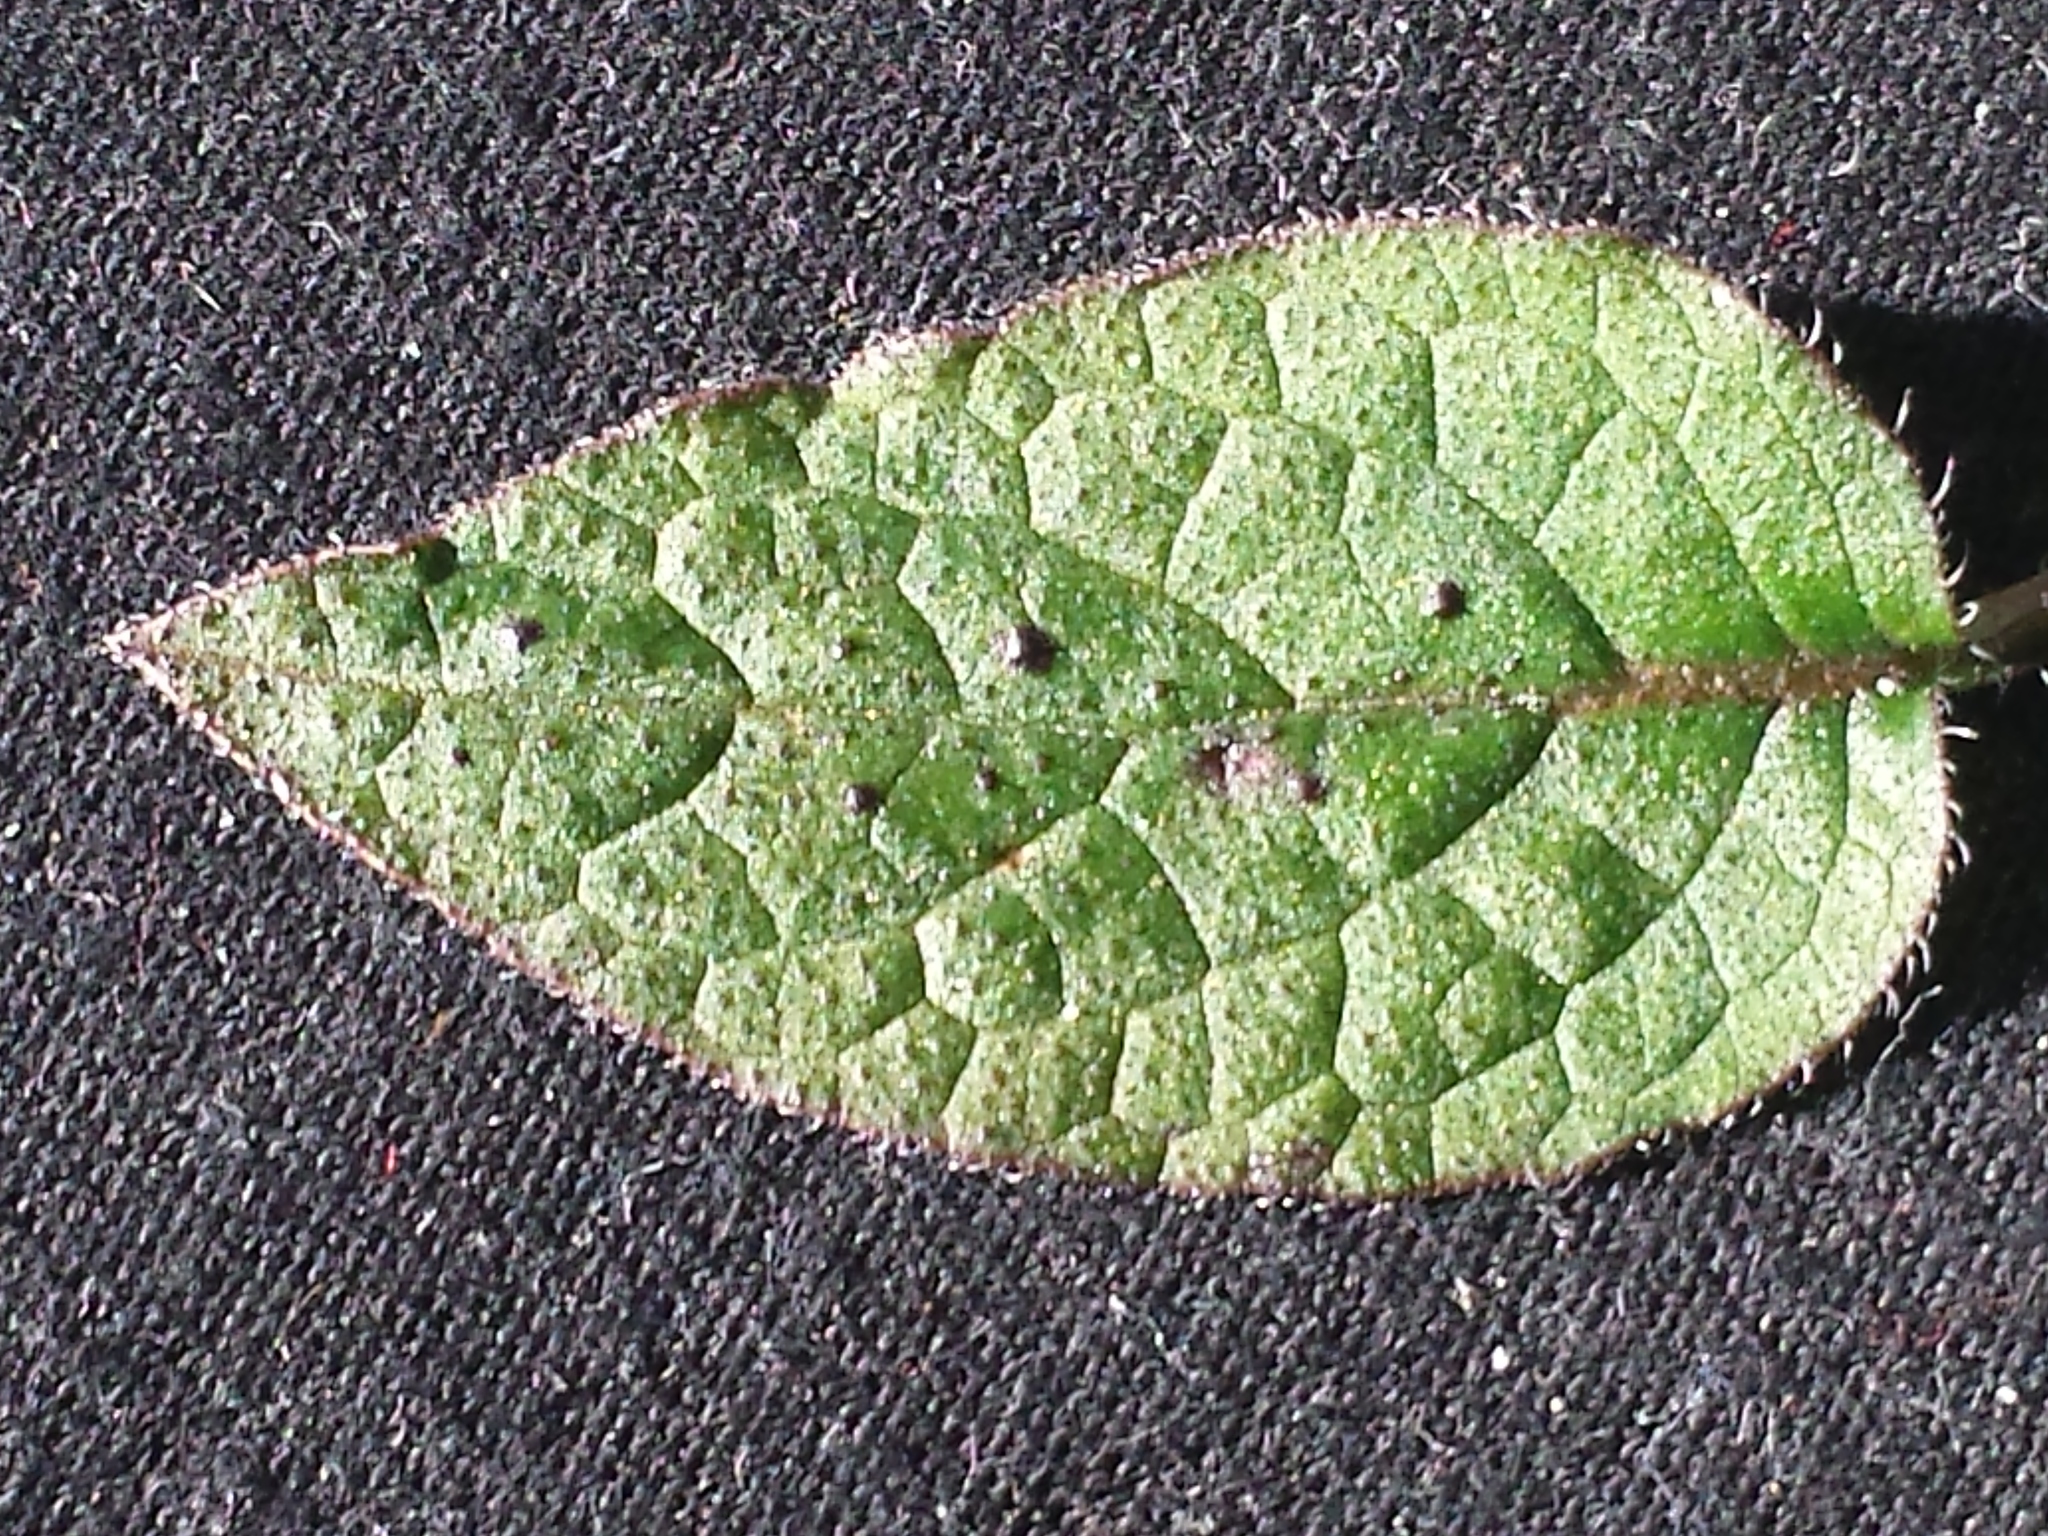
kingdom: Plantae
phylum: Tracheophyta
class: Magnoliopsida
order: Boraginales
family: Boraginaceae
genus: Symphytum
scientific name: Symphytum grandiflorum
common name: Creeping comfrey
